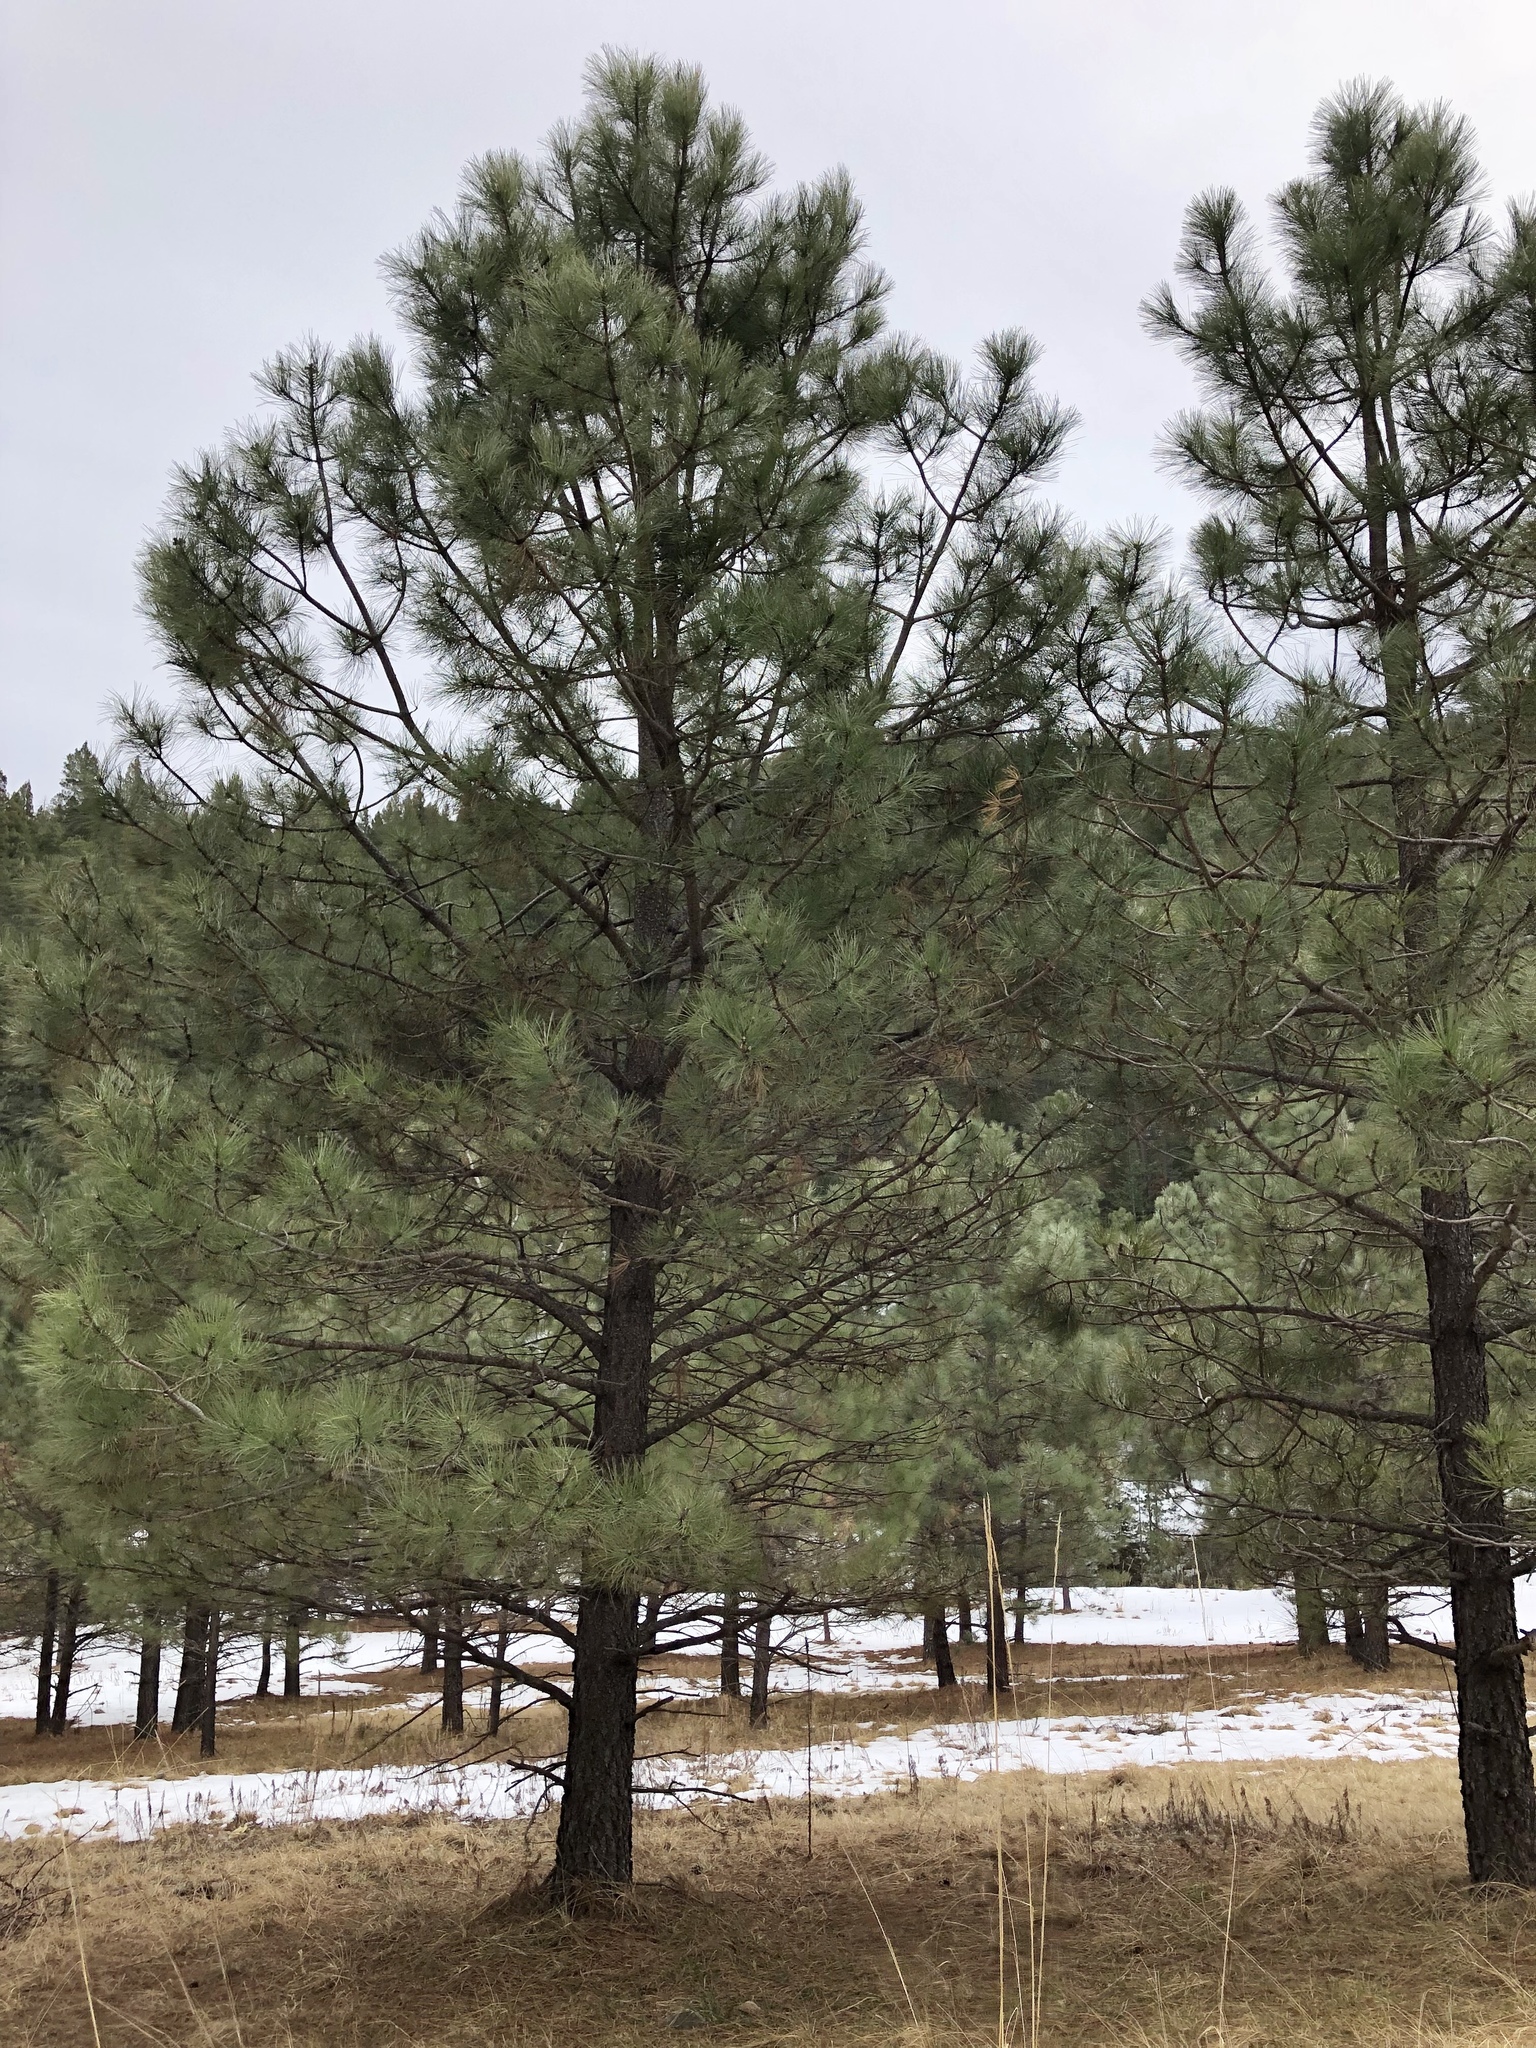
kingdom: Plantae
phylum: Tracheophyta
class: Pinopsida
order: Pinales
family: Pinaceae
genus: Pinus
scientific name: Pinus ponderosa
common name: Western yellow-pine
